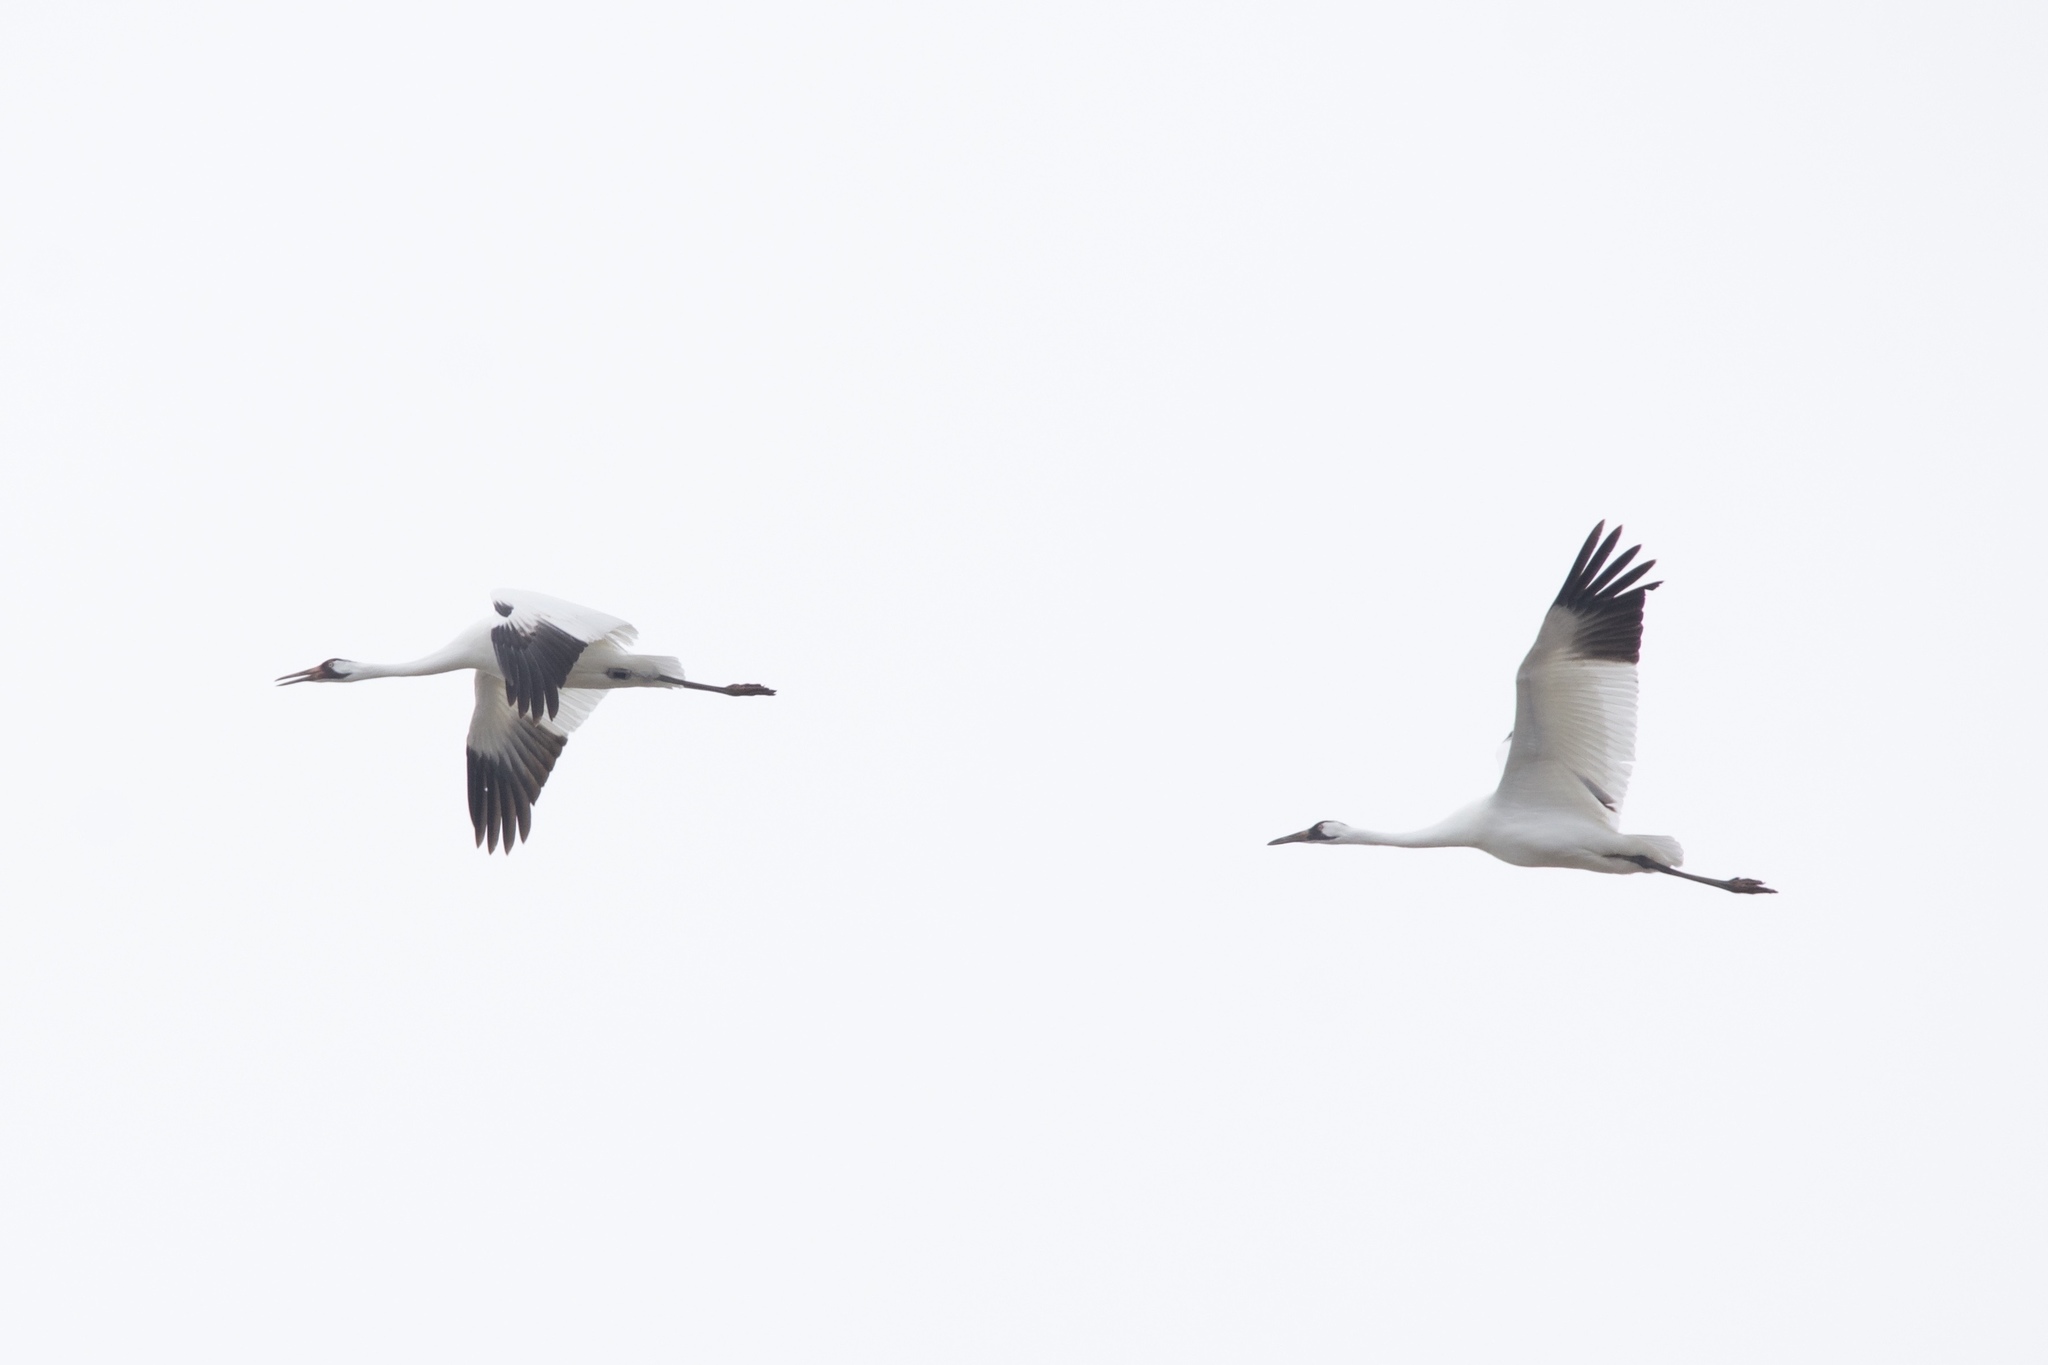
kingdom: Animalia
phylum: Chordata
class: Aves
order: Gruiformes
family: Gruidae
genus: Grus
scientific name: Grus americana
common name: Whooping crane
